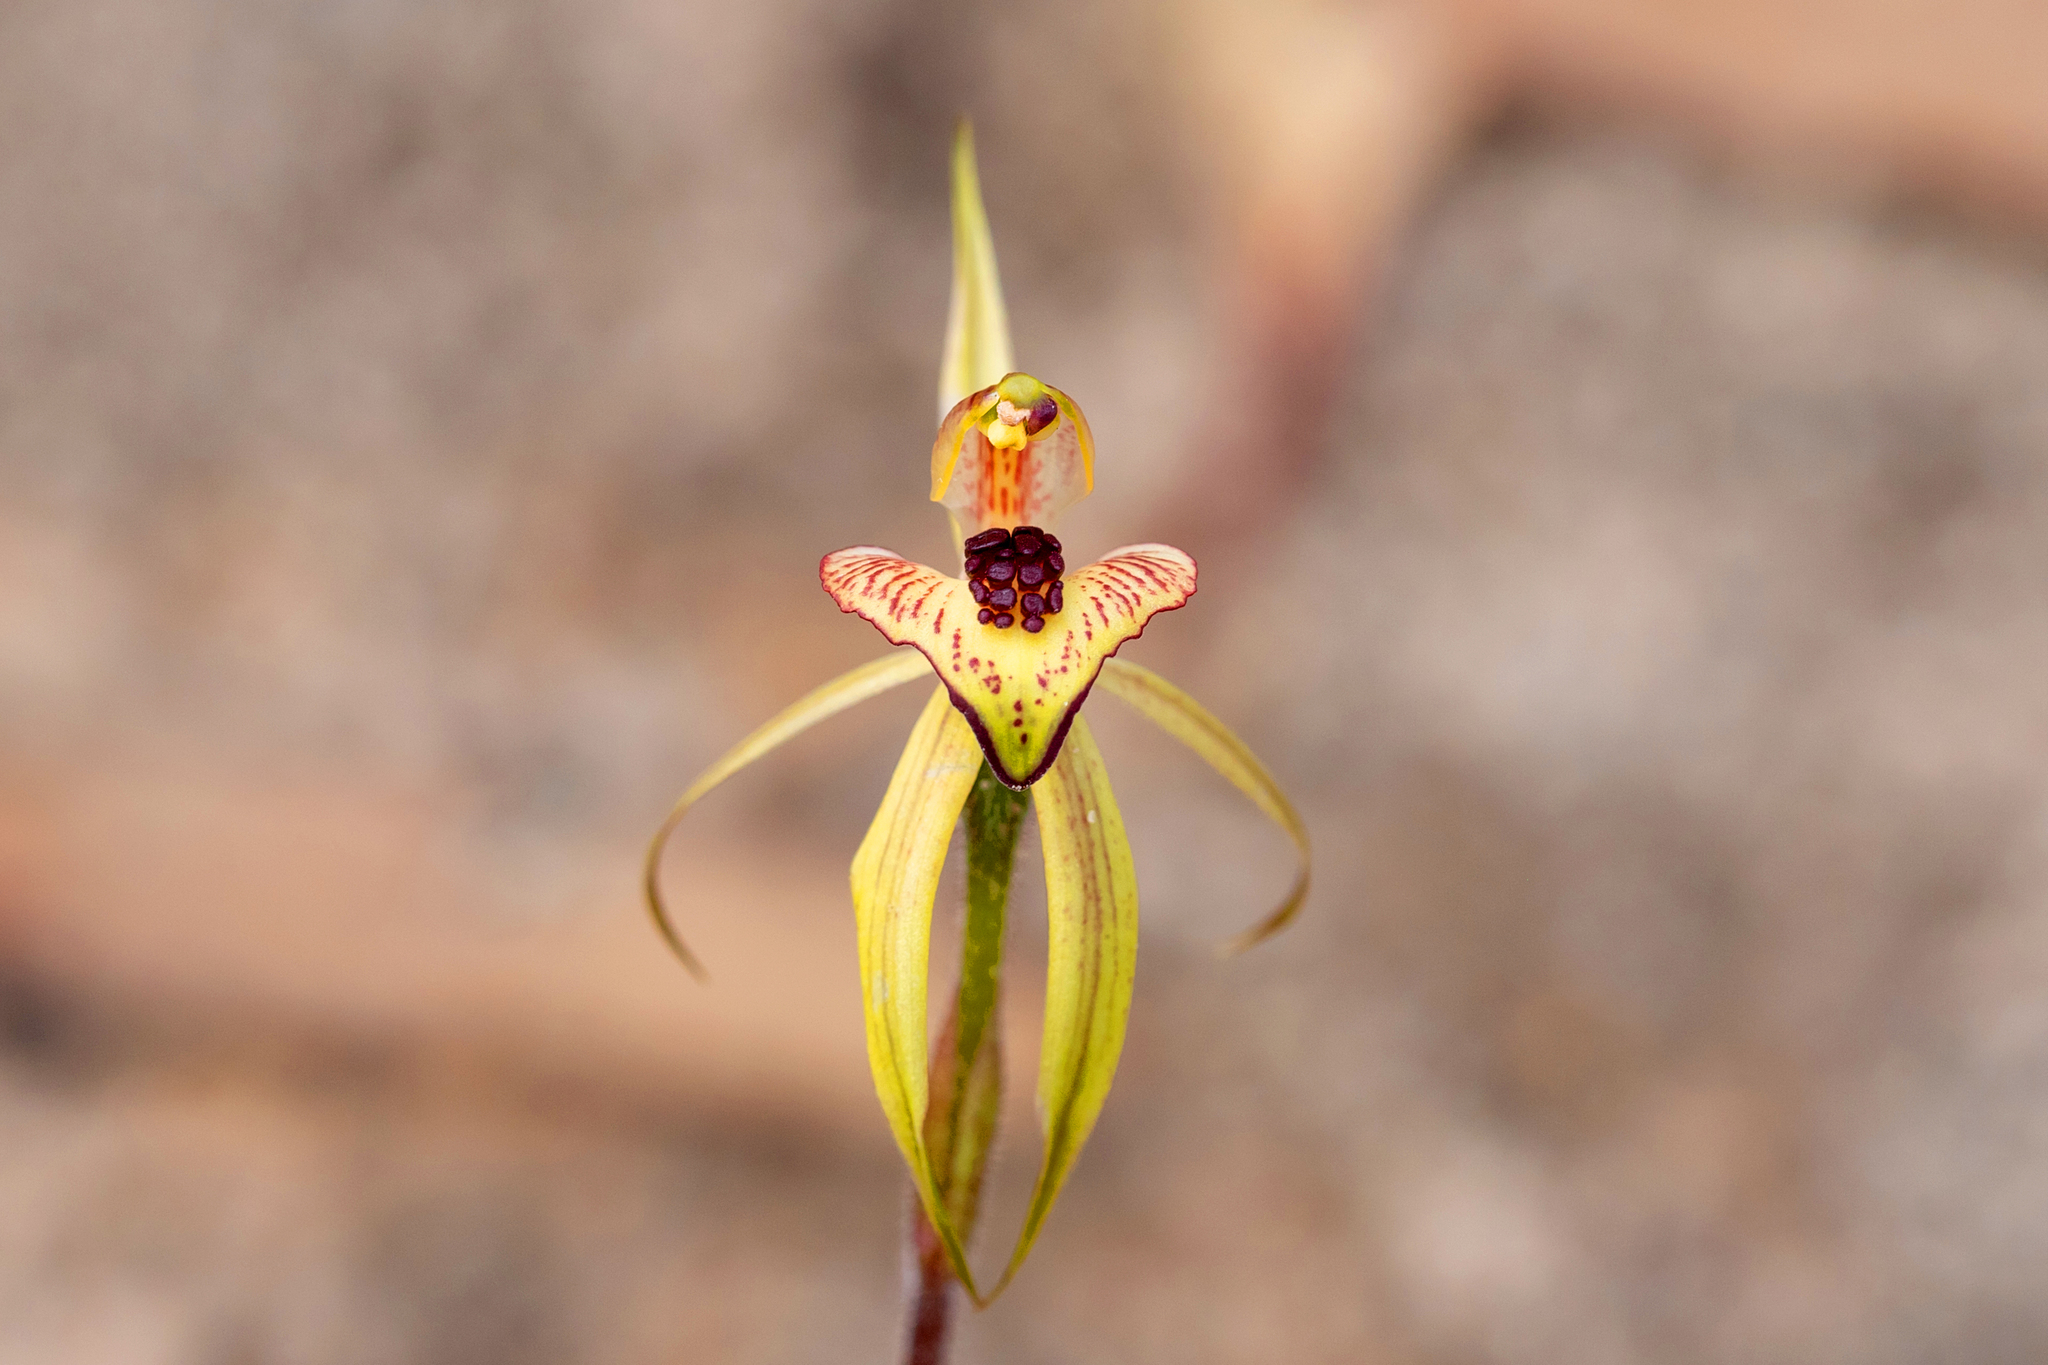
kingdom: Plantae
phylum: Tracheophyta
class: Liliopsida
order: Asparagales
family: Orchidaceae
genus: Caladenia
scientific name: Caladenia cardiochila
